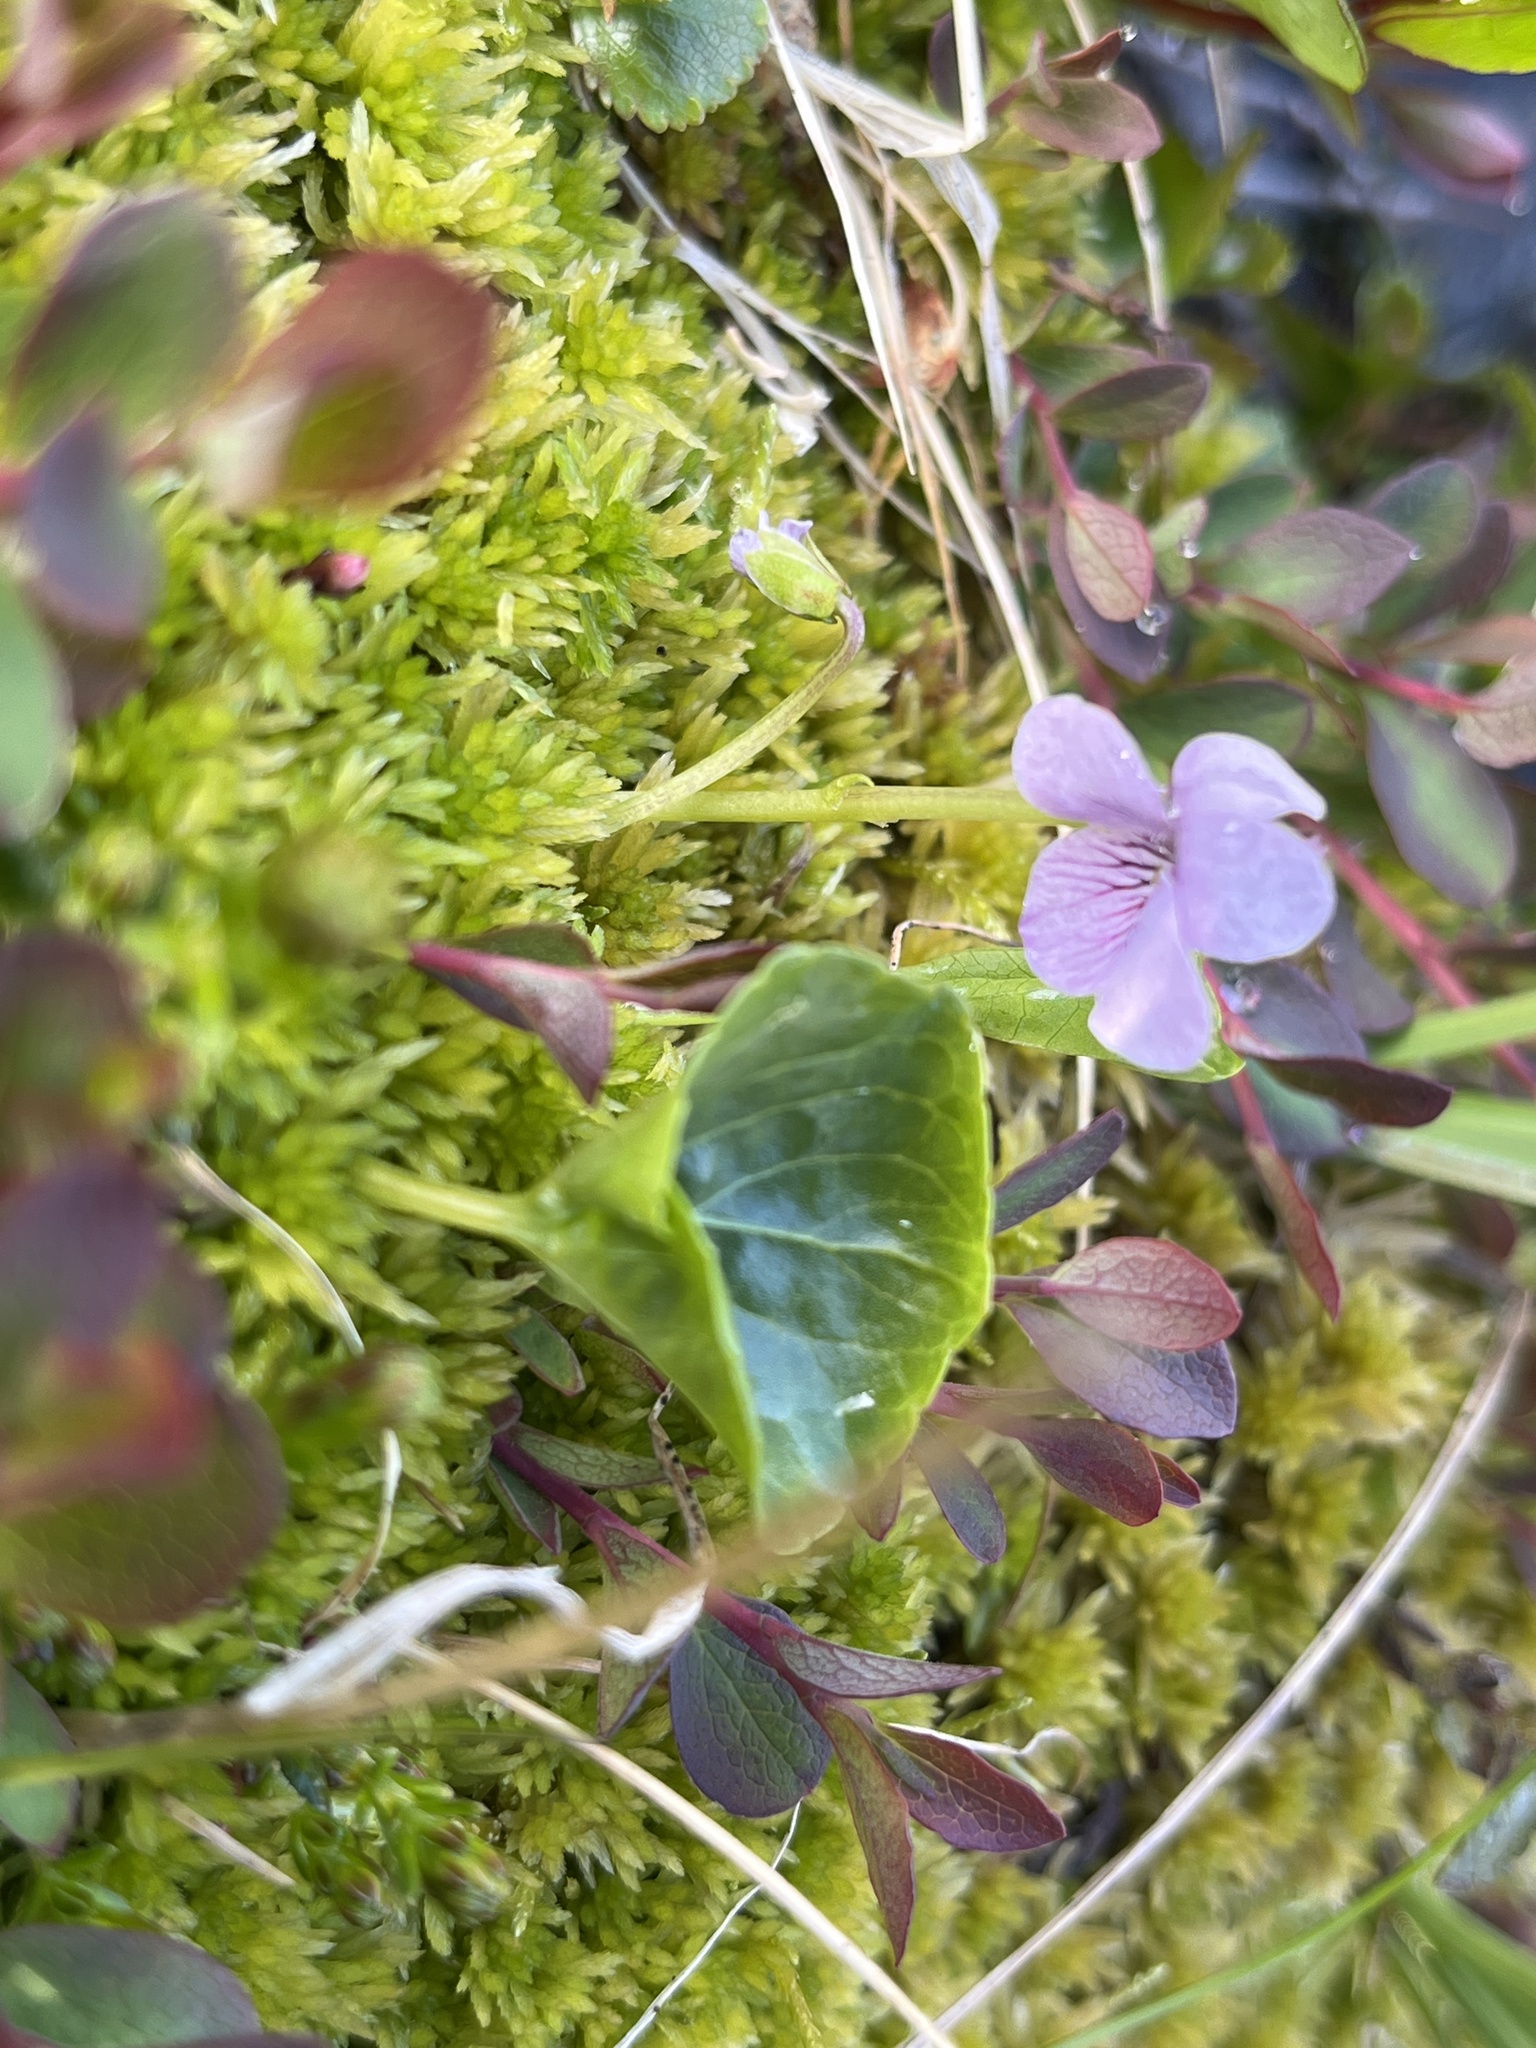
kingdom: Plantae
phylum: Tracheophyta
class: Magnoliopsida
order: Malpighiales
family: Violaceae
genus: Viola
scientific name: Viola palustris
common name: Marsh violet
